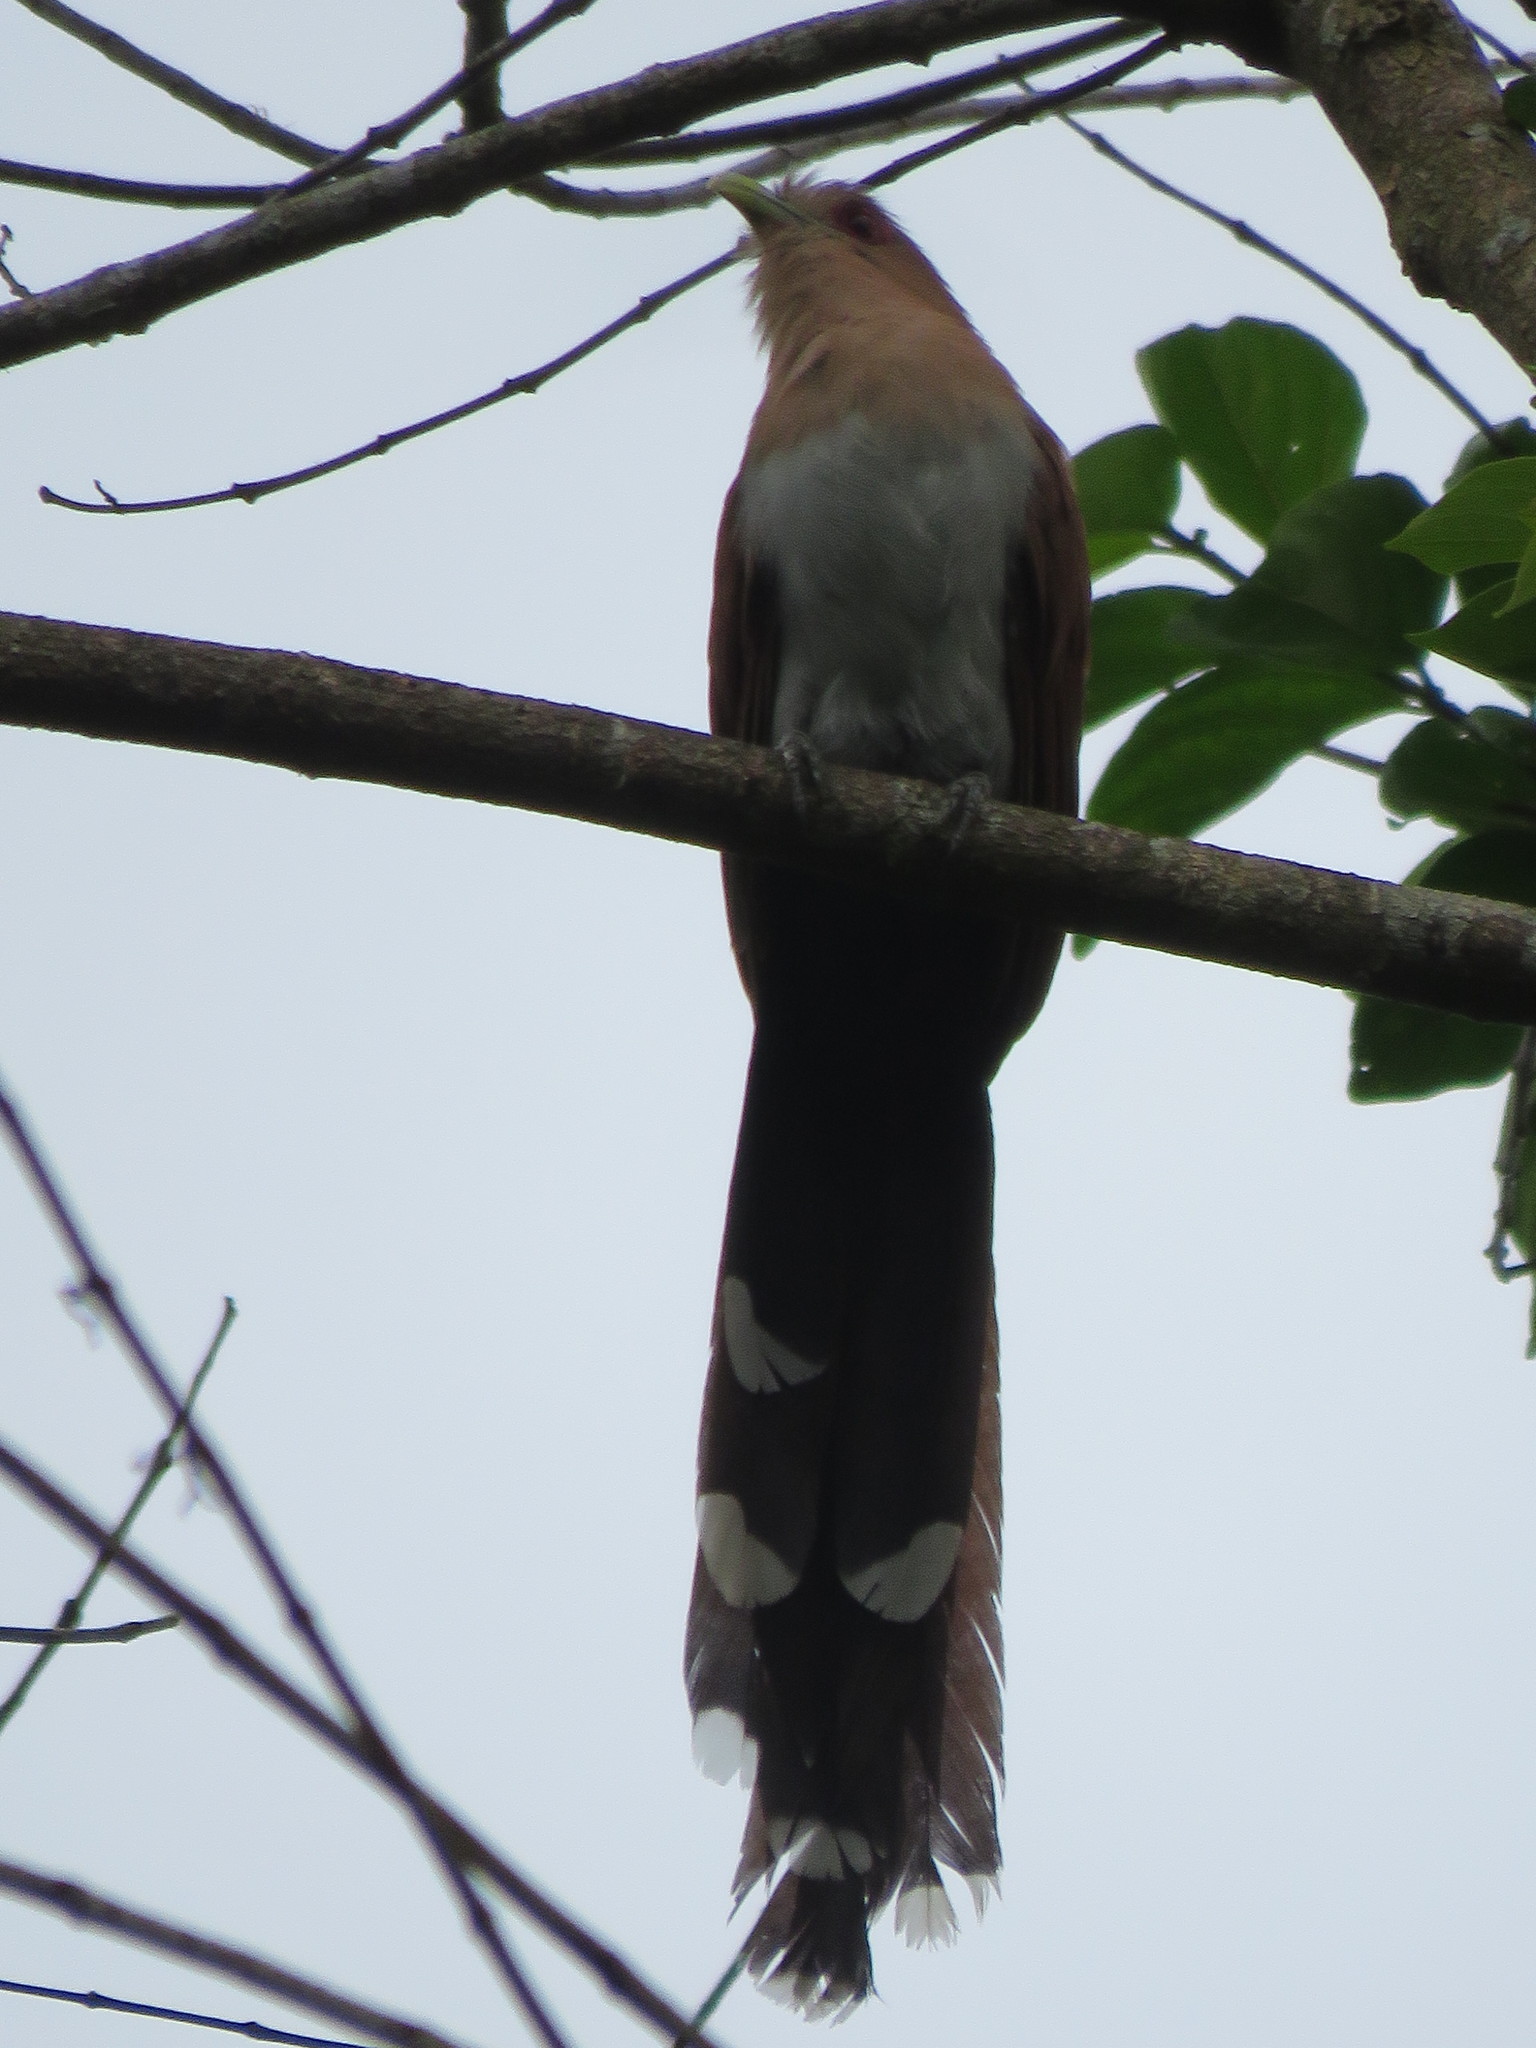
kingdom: Animalia
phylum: Chordata
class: Aves
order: Cuculiformes
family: Cuculidae
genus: Piaya
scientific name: Piaya cayana
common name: Squirrel cuckoo
